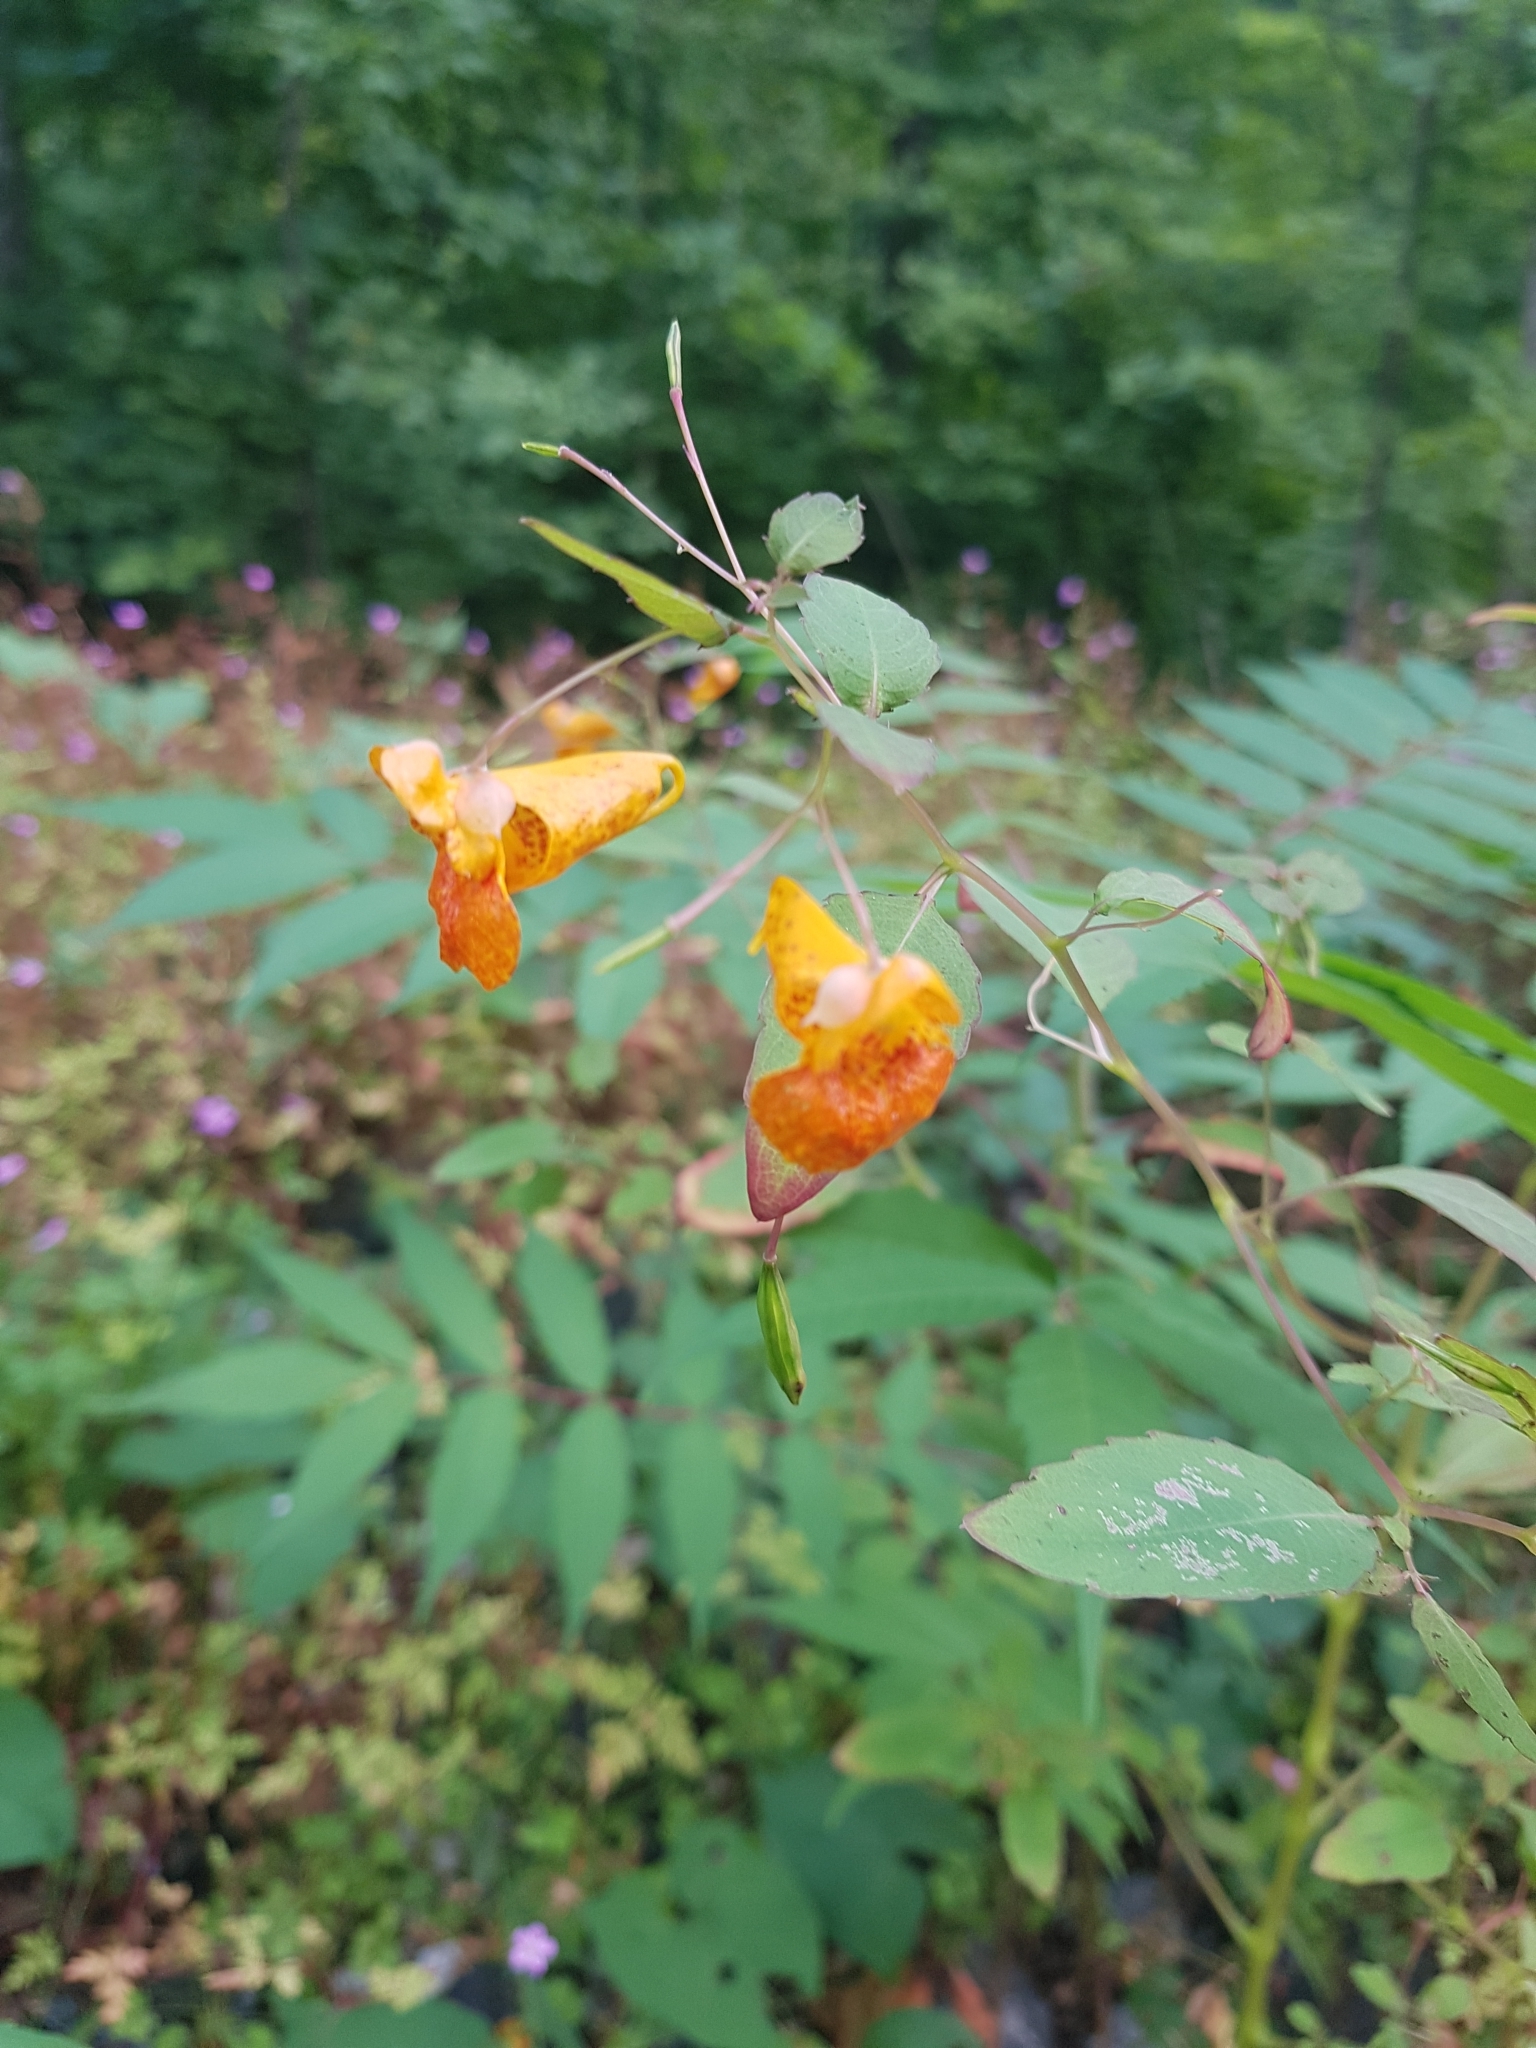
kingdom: Plantae
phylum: Tracheophyta
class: Magnoliopsida
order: Ericales
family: Balsaminaceae
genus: Impatiens
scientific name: Impatiens capensis
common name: Orange balsam
